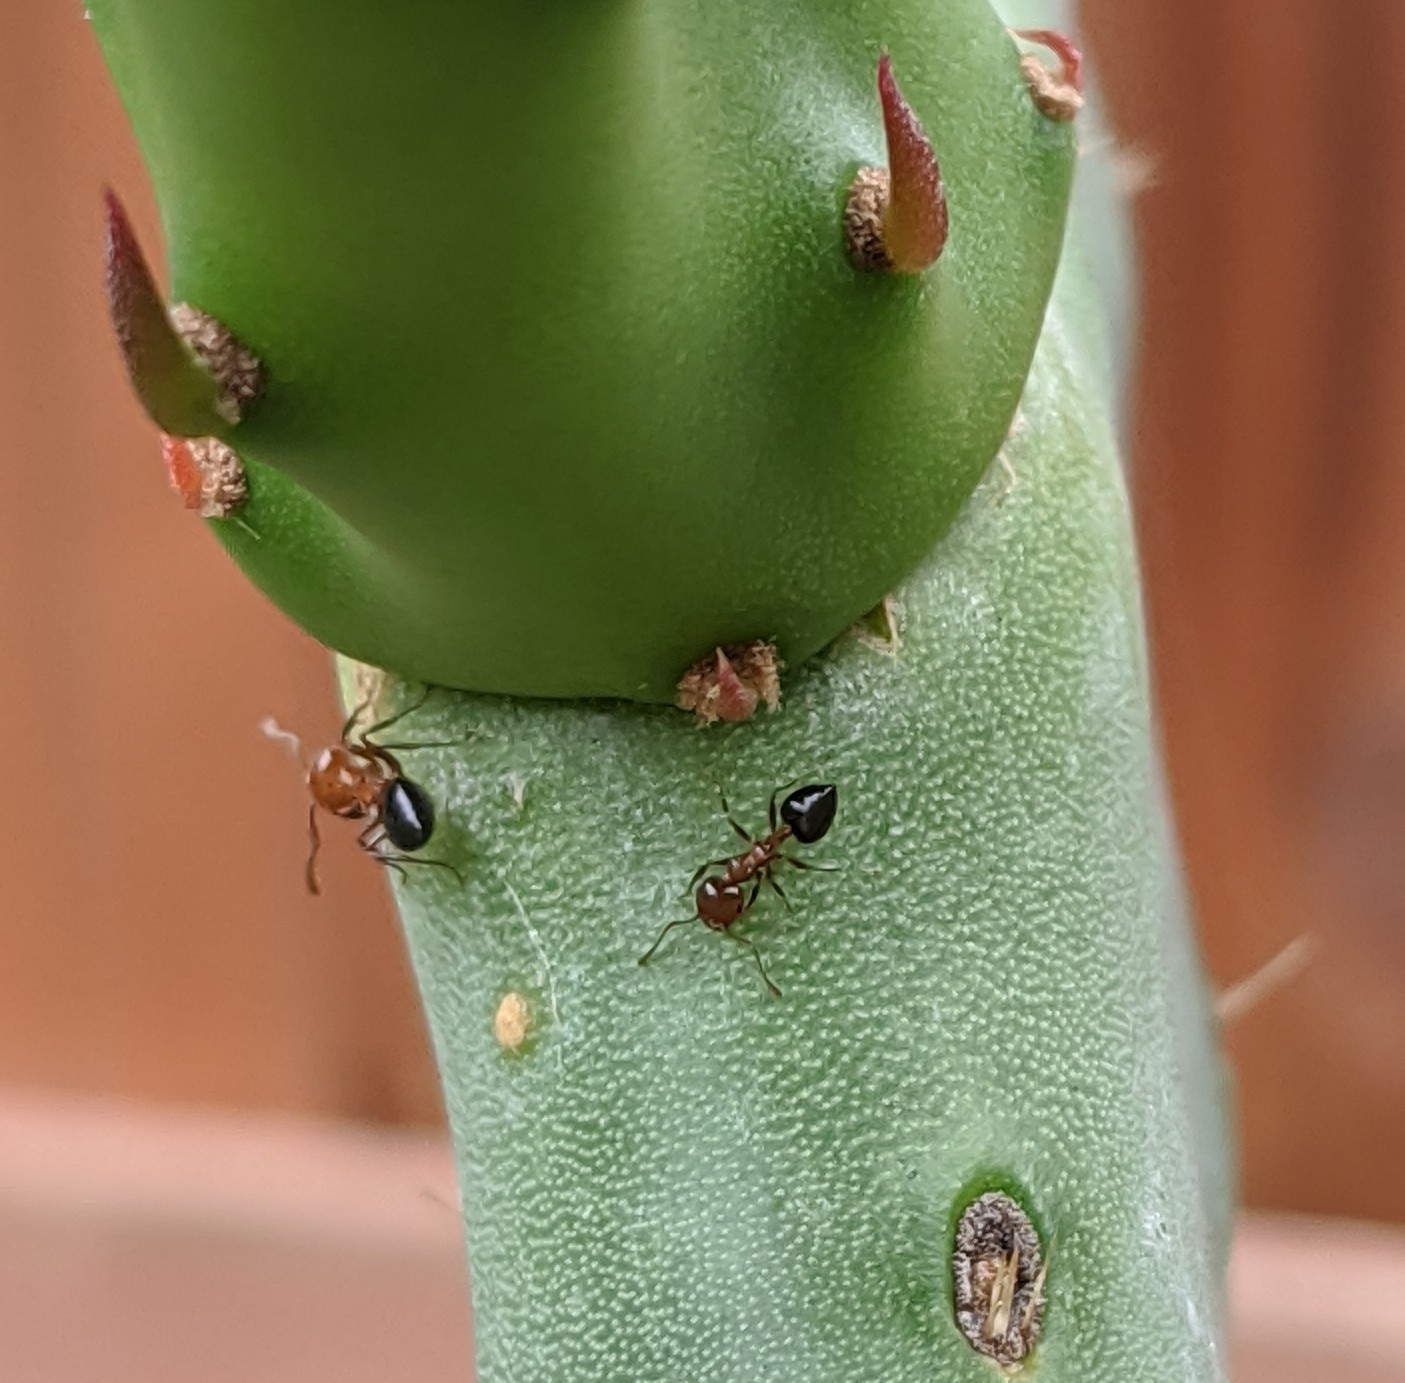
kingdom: Animalia
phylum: Arthropoda
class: Insecta
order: Hymenoptera
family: Formicidae
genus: Crematogaster
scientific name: Crematogaster laeviuscula
